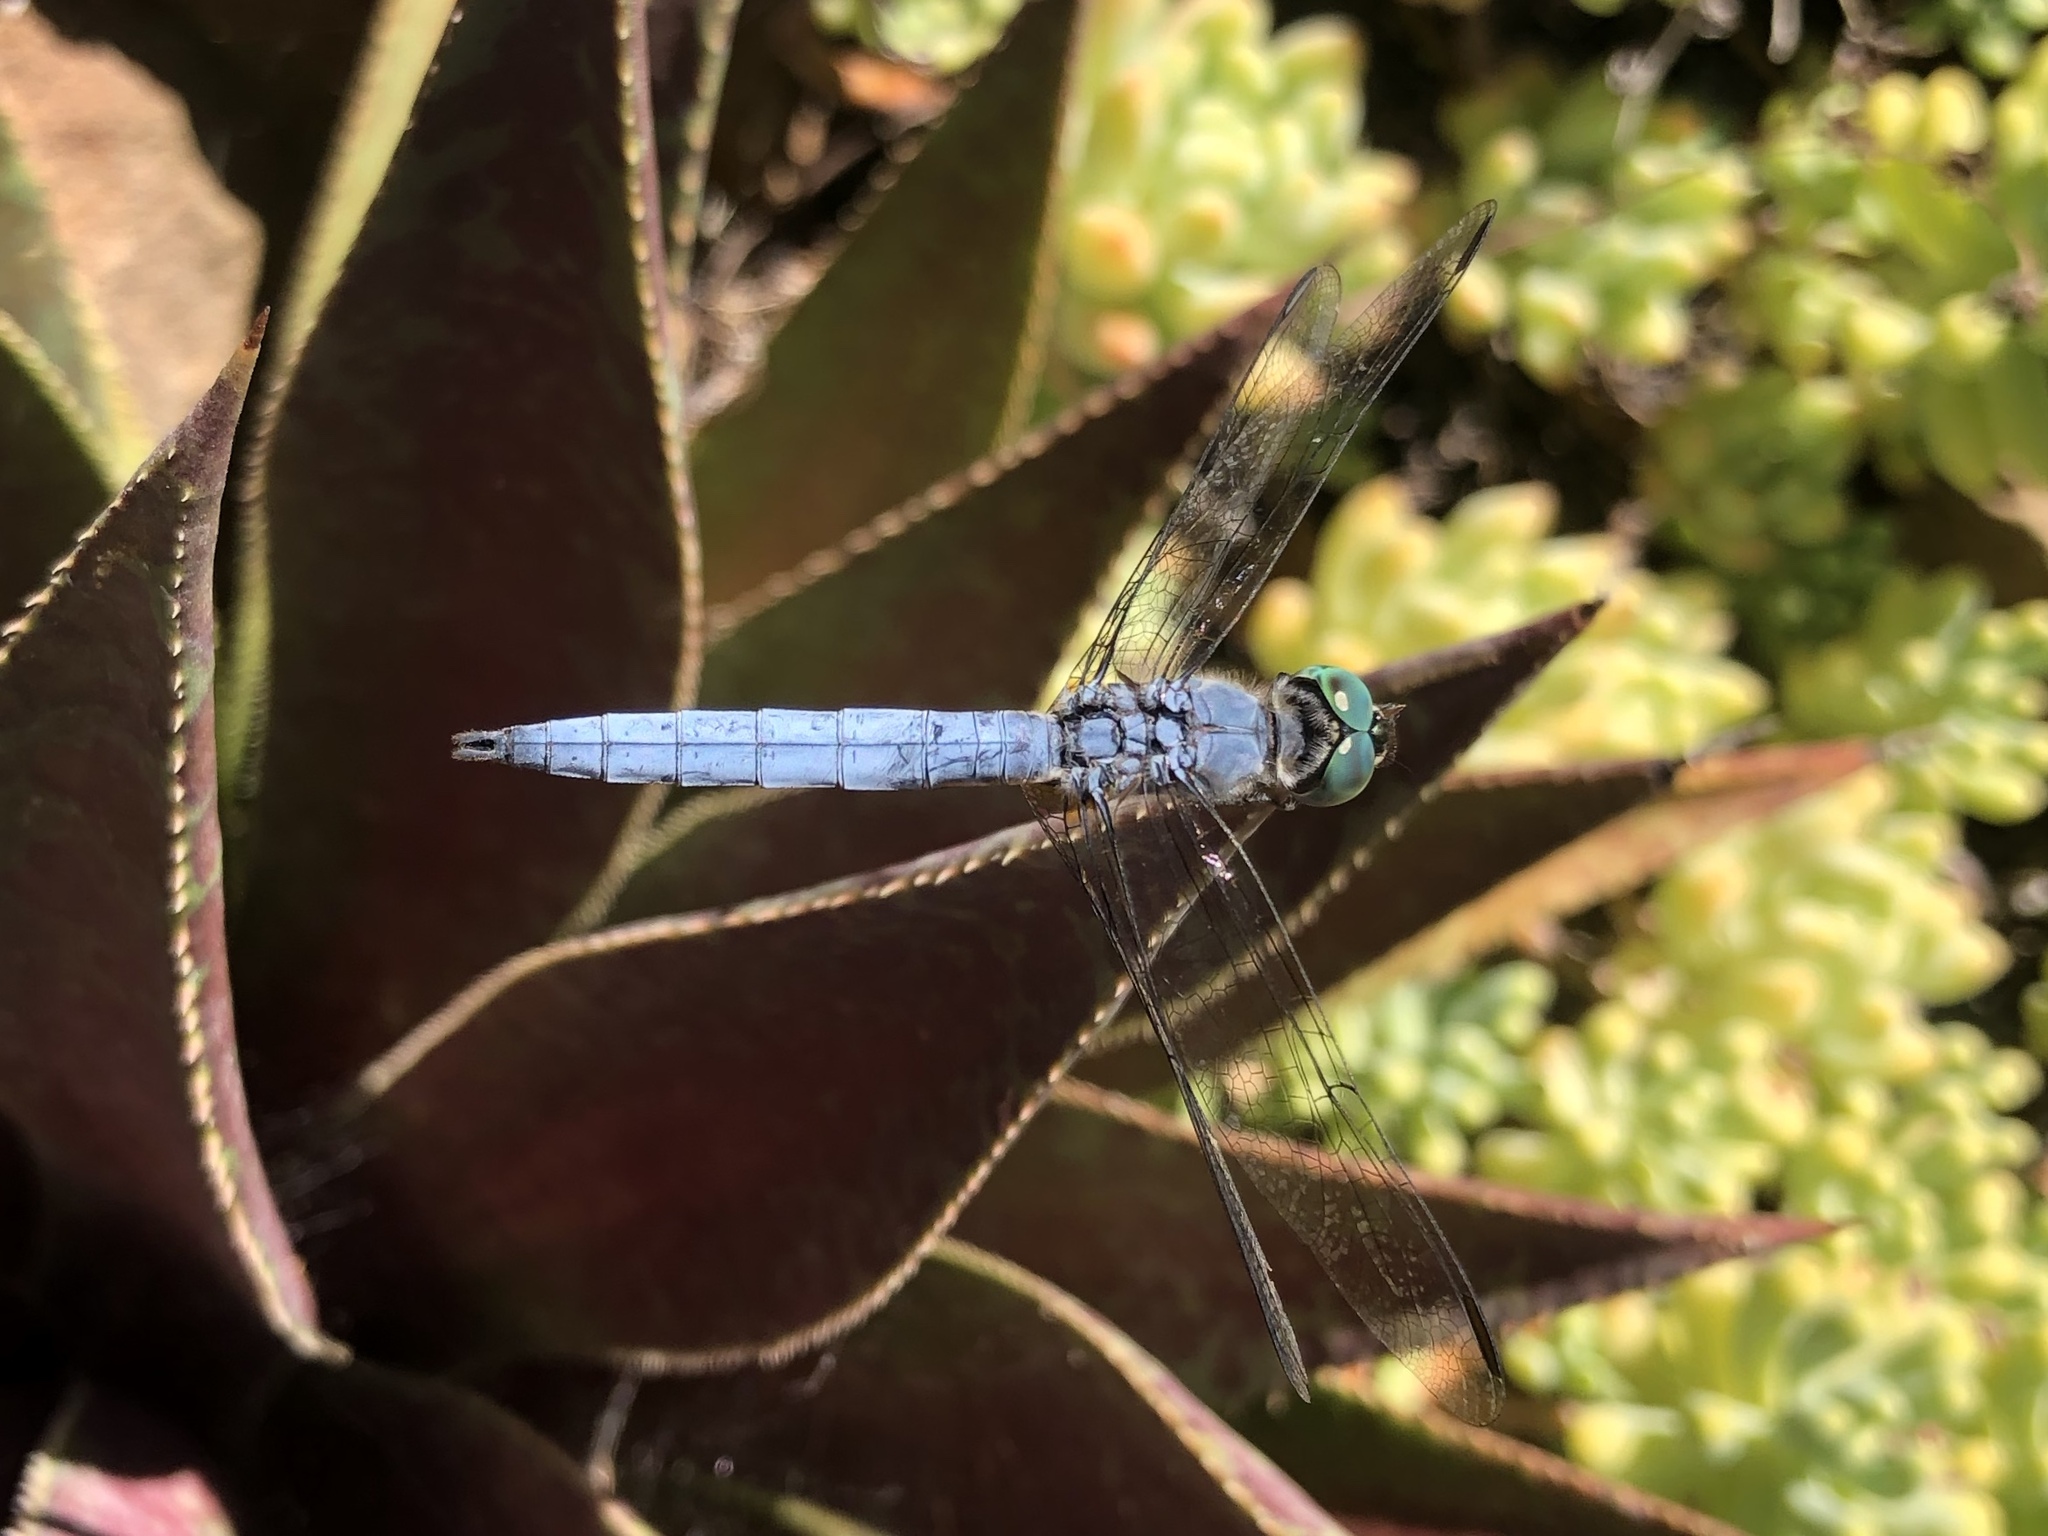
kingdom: Animalia
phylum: Arthropoda
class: Insecta
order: Odonata
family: Libellulidae
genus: Pachydiplax
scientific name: Pachydiplax longipennis
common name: Blue dasher
